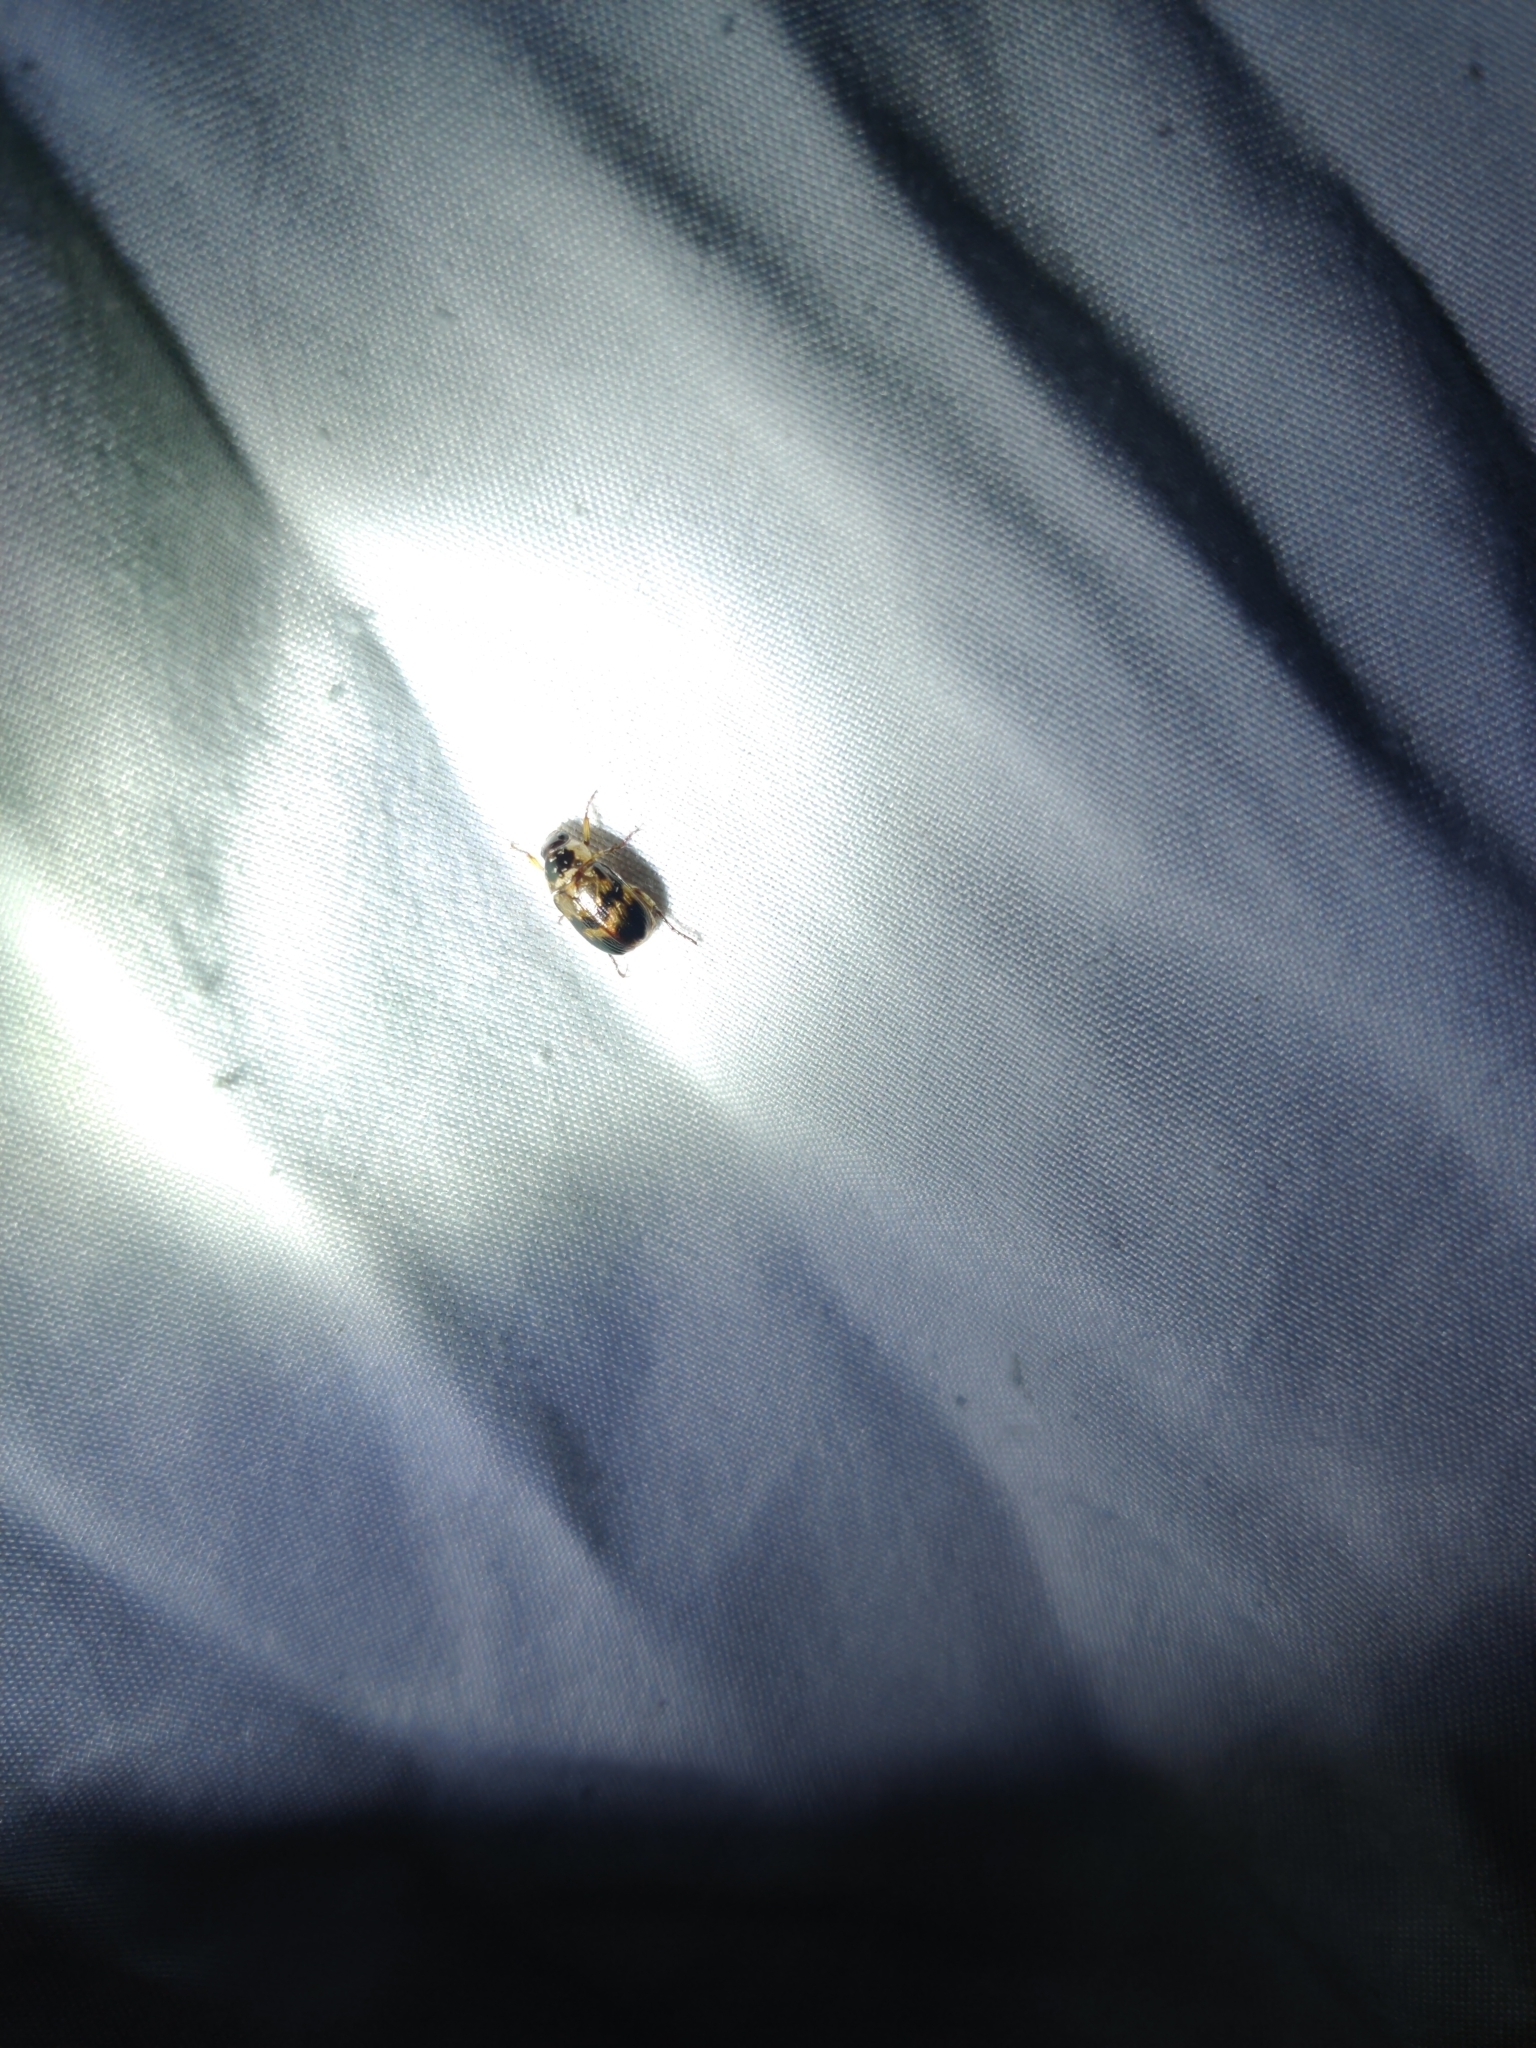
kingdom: Animalia
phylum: Arthropoda
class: Insecta
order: Coleoptera
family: Scarabaeidae
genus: Anomala
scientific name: Anomala innuba
